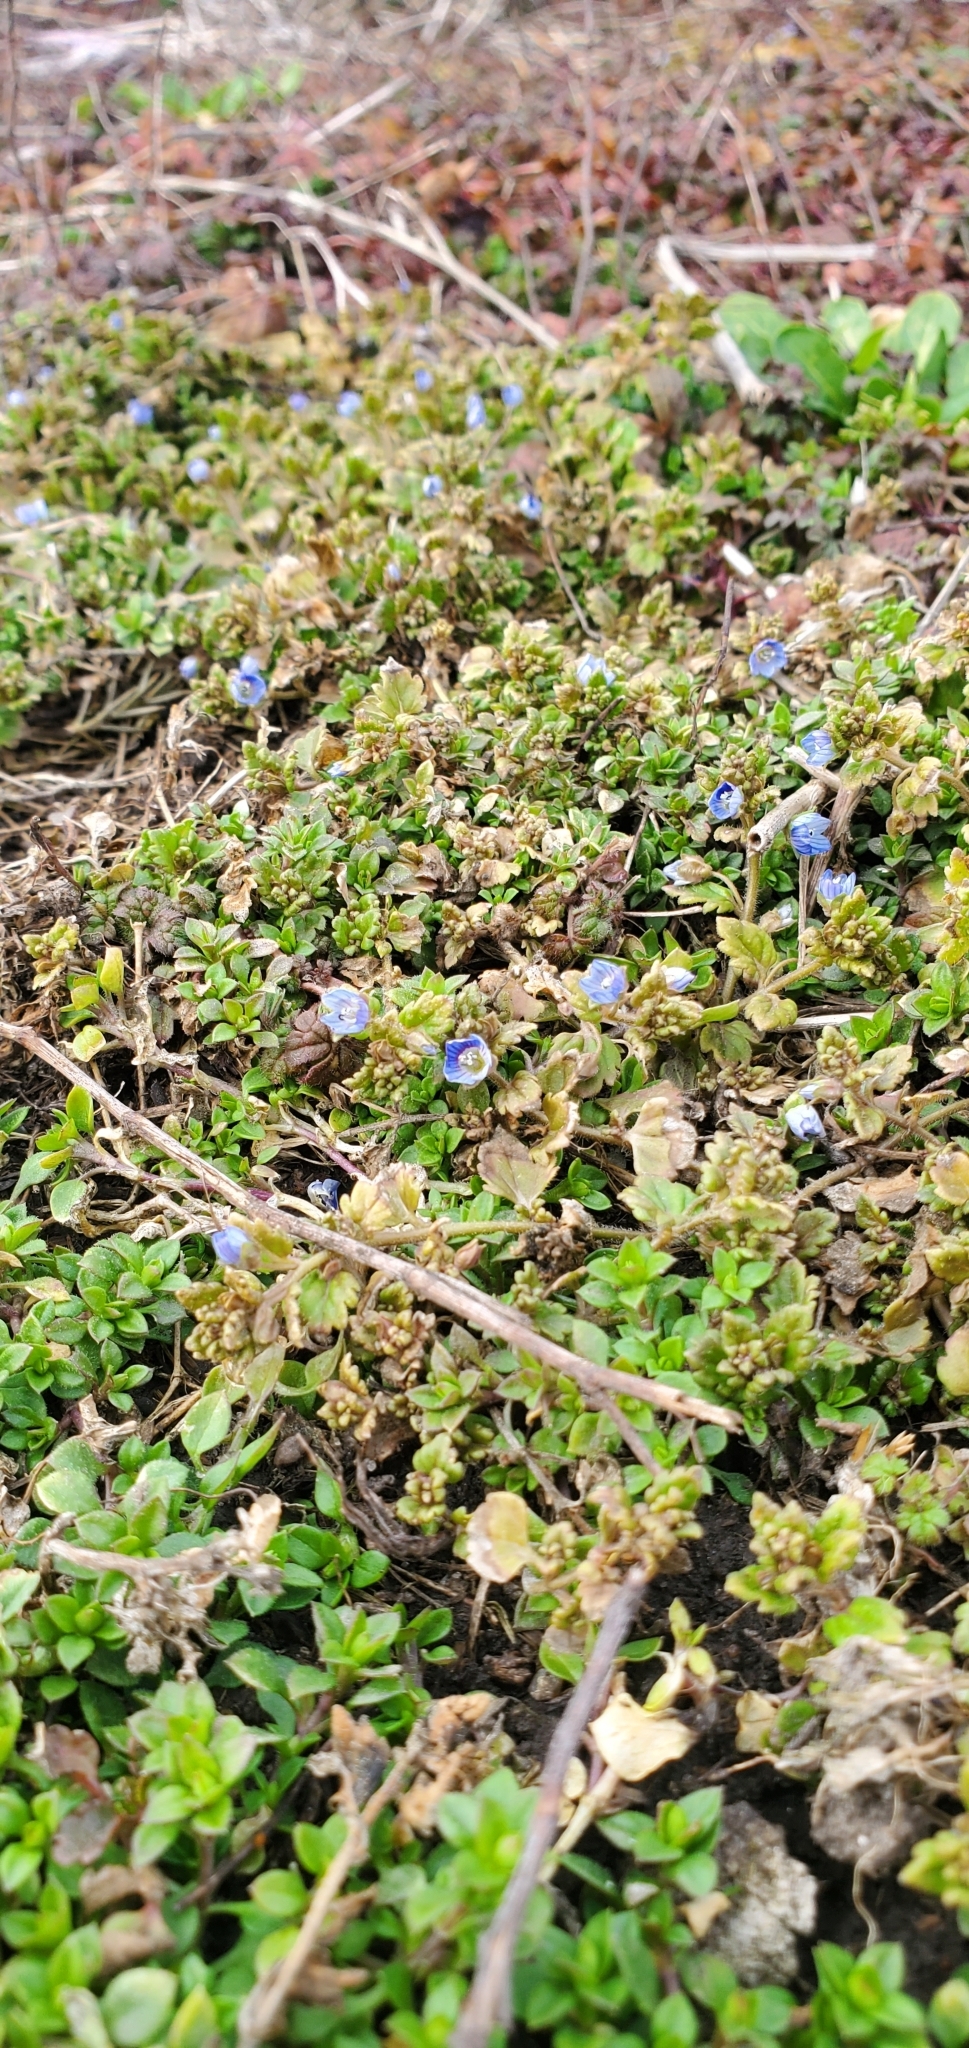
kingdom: Plantae
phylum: Tracheophyta
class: Magnoliopsida
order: Lamiales
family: Plantaginaceae
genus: Veronica
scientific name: Veronica polita
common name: Grey field-speedwell
